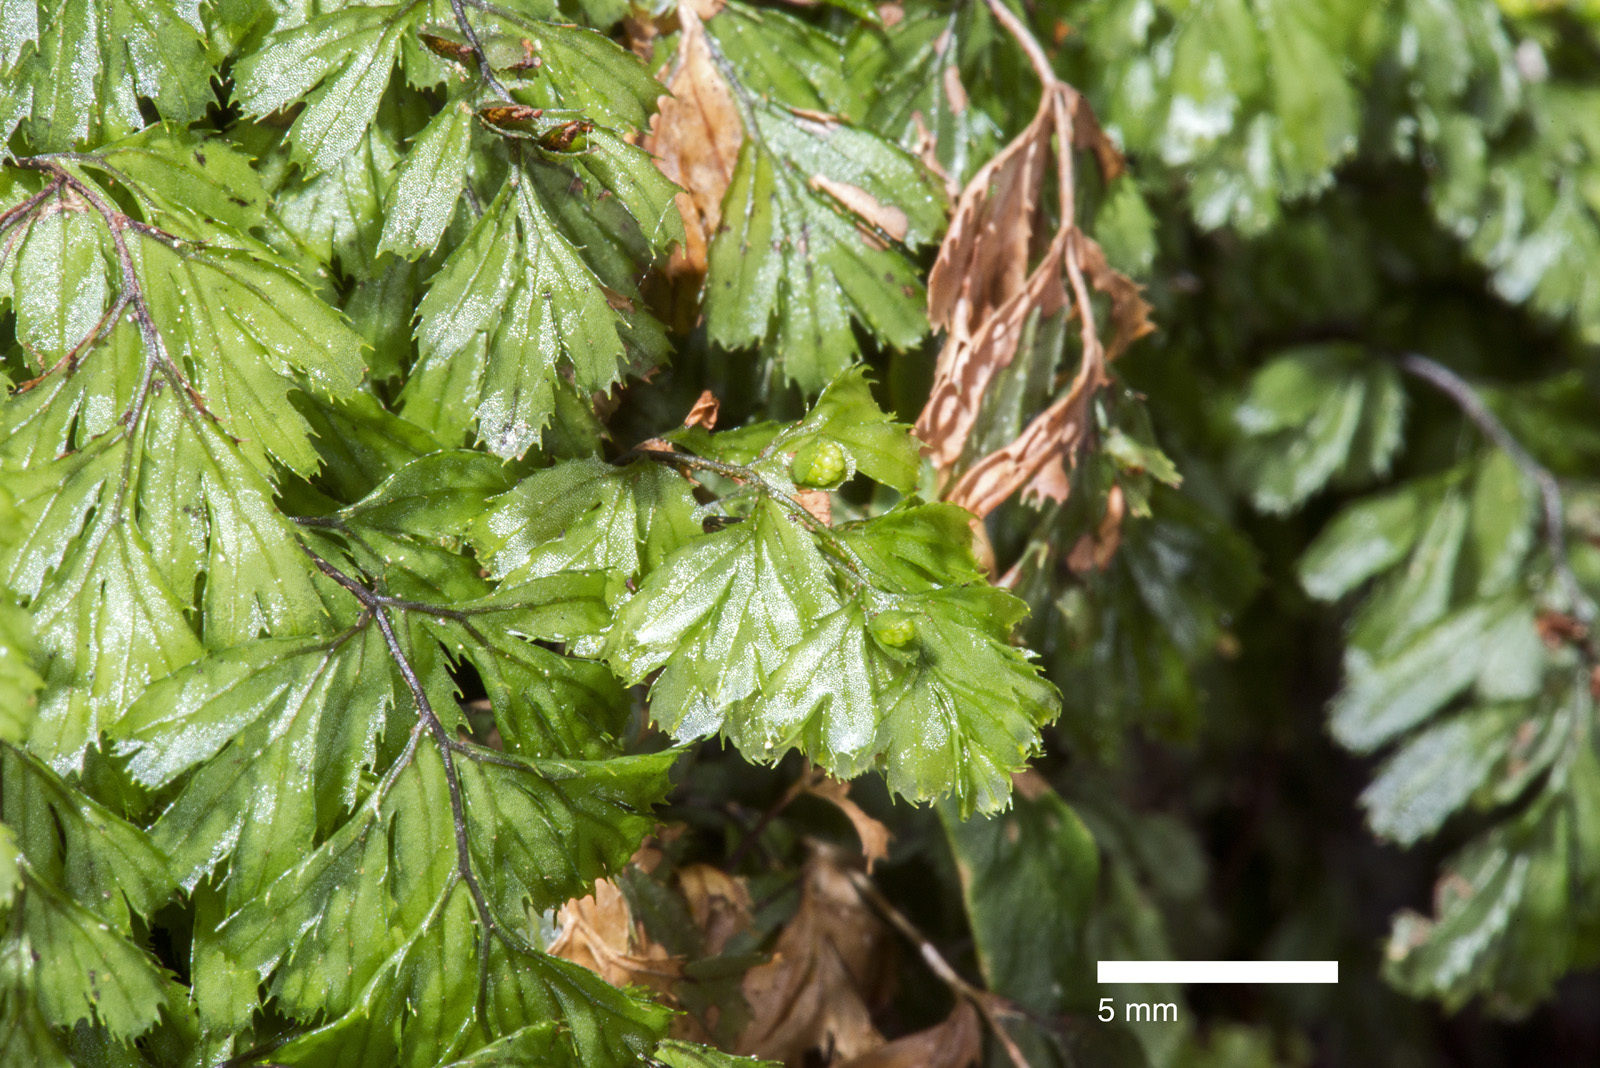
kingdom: Plantae
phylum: Tracheophyta
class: Polypodiopsida
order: Hymenophyllales
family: Hymenophyllaceae
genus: Hymenophyllum
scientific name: Hymenophyllum revolutum
